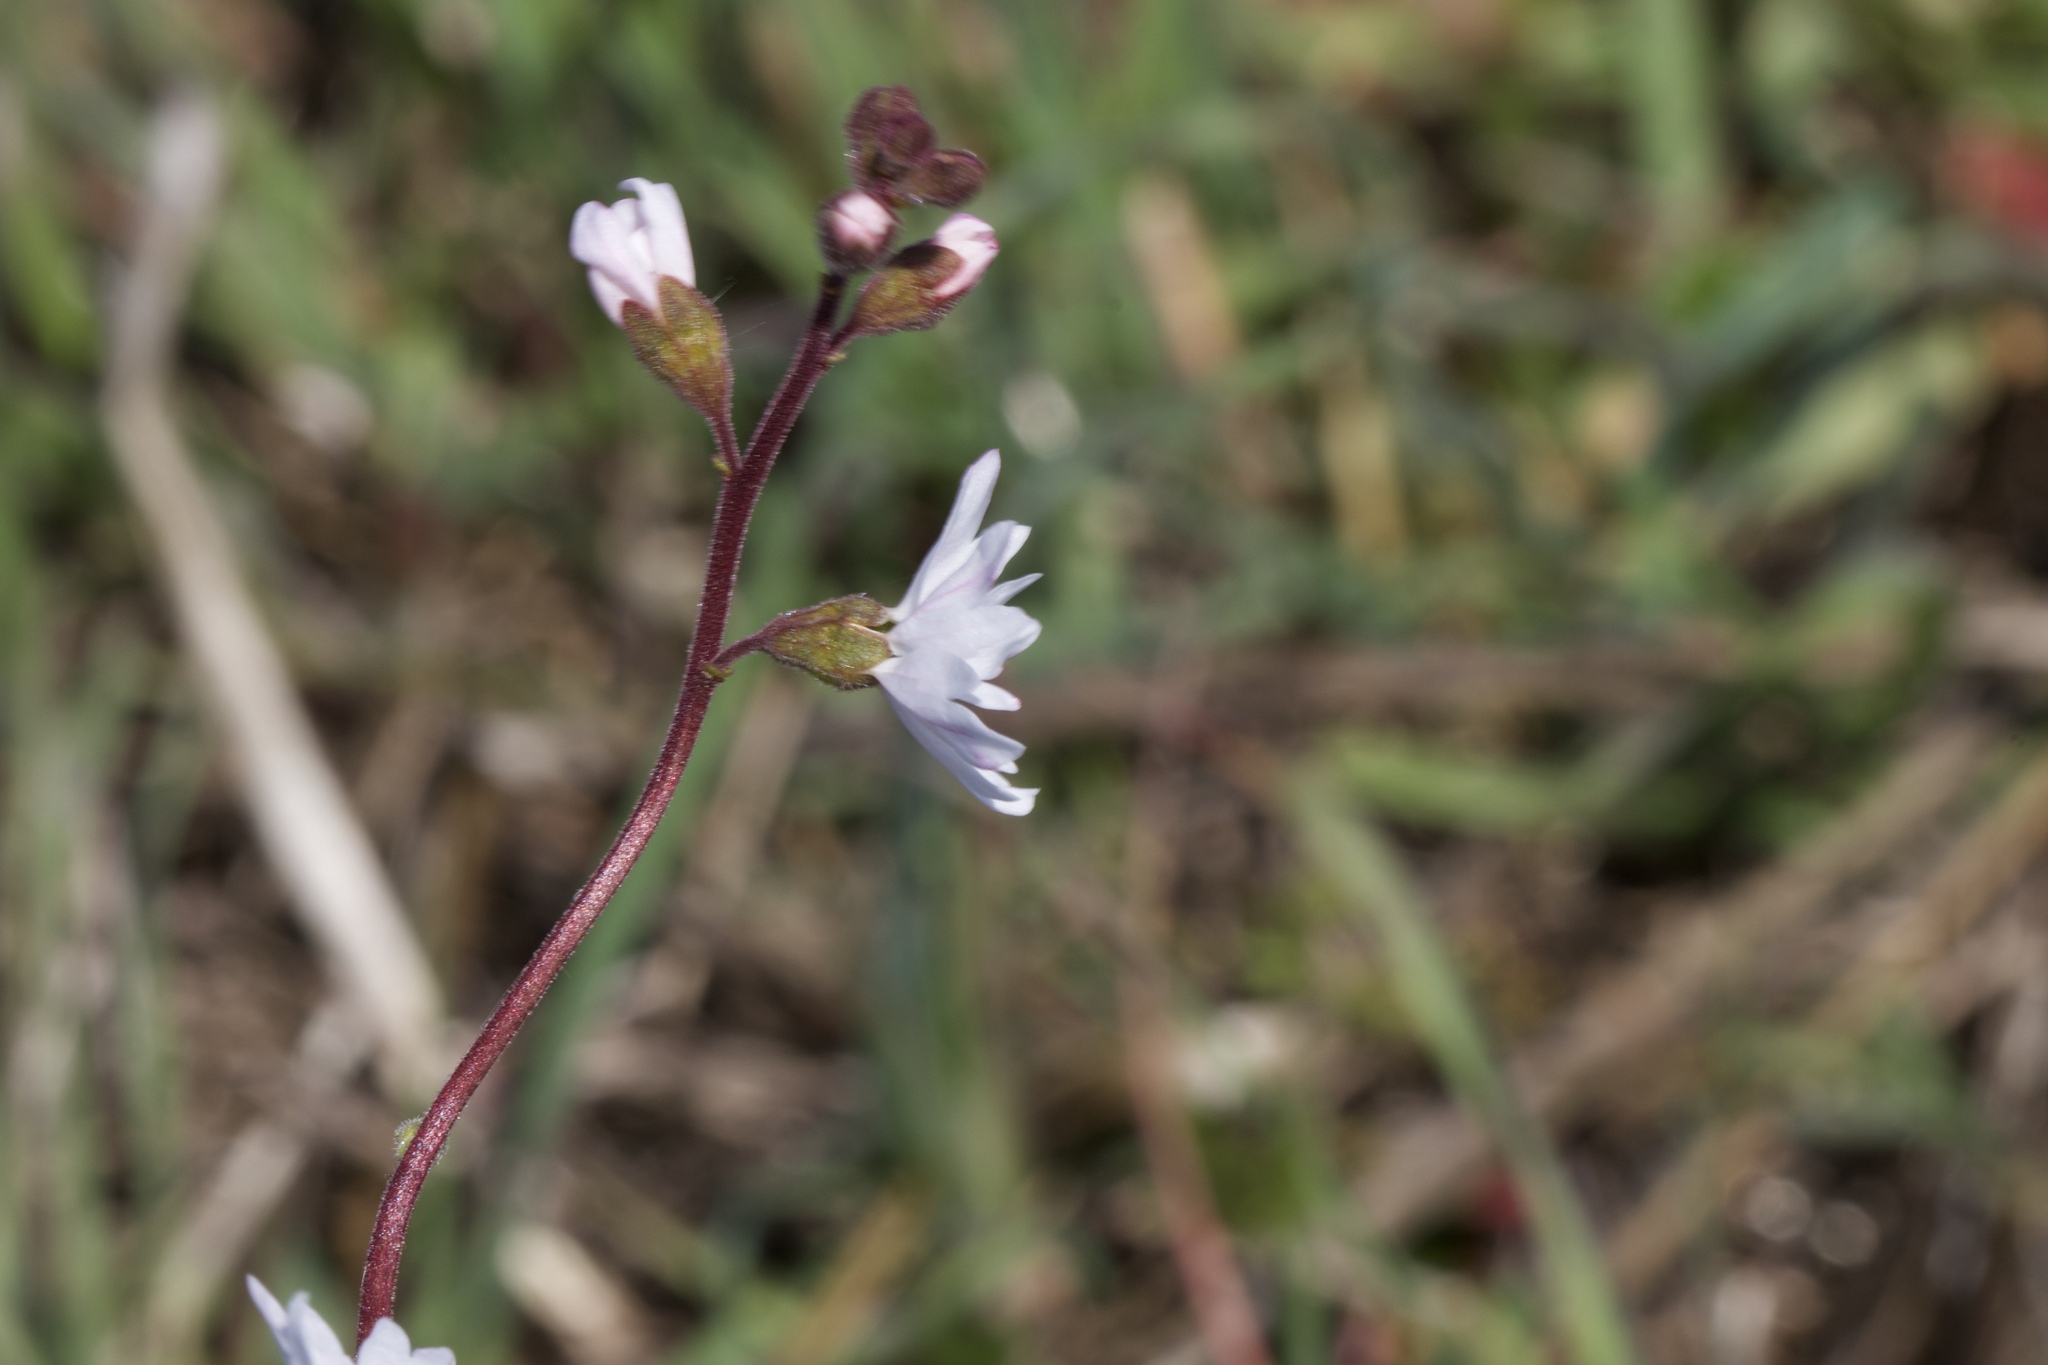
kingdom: Plantae
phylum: Tracheophyta
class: Magnoliopsida
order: Saxifragales
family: Saxifragaceae
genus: Lithophragma
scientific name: Lithophragma affine
